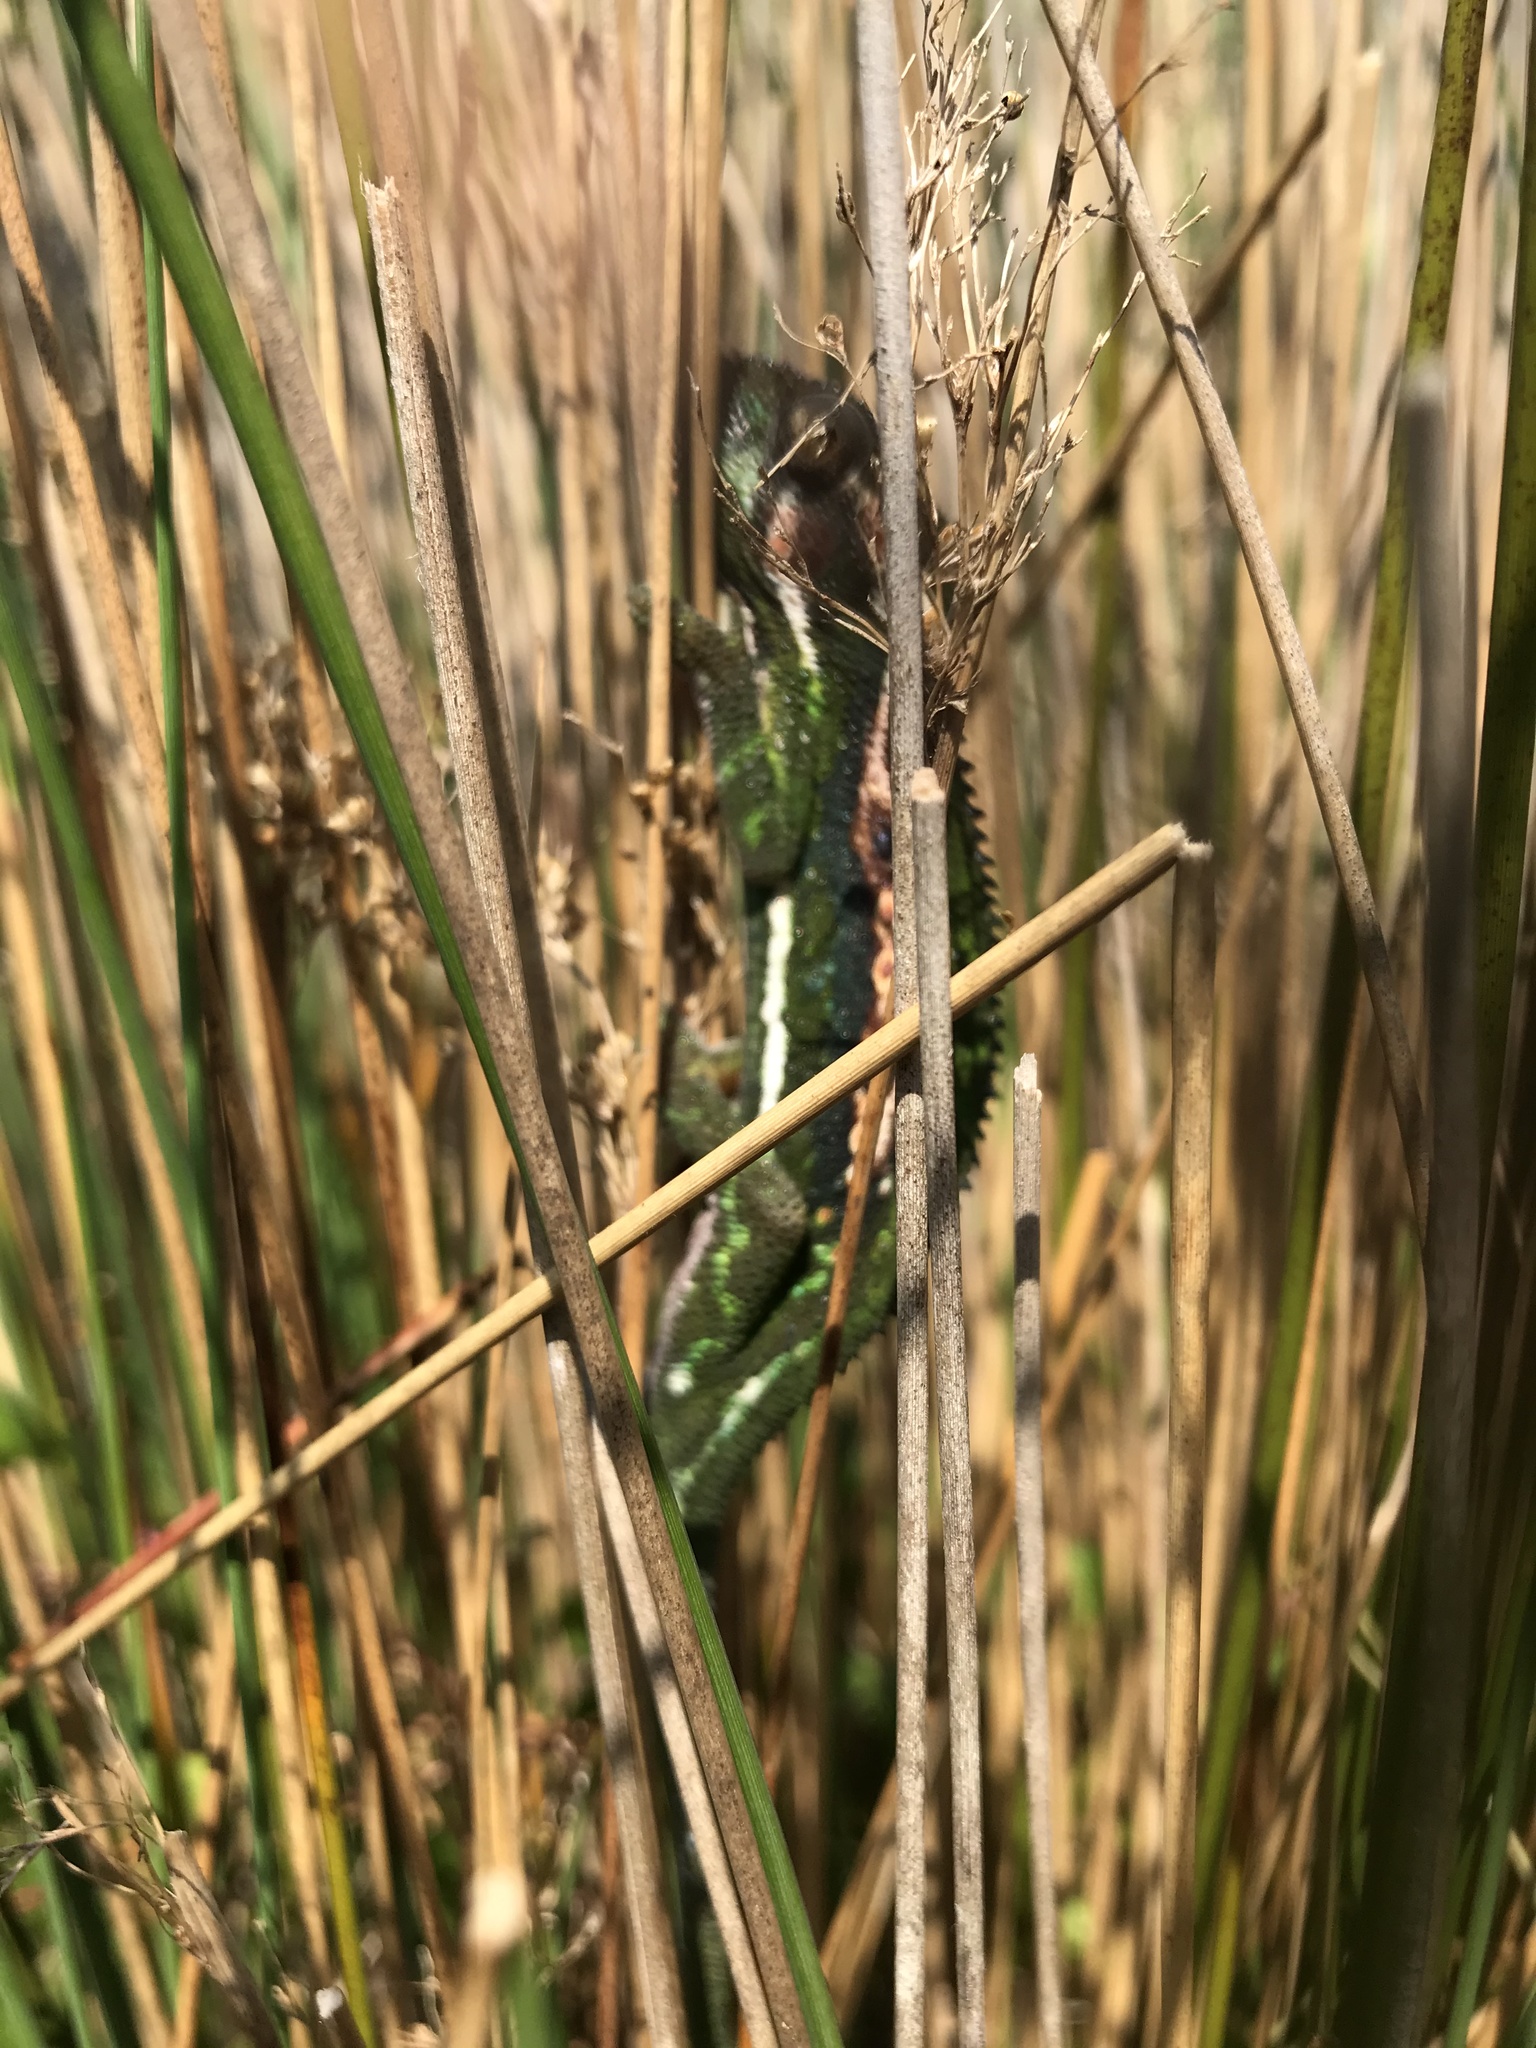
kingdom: Animalia
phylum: Chordata
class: Squamata
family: Chamaeleonidae
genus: Bradypodion
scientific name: Bradypodion pumilum
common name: Cape dwarf chameleon
